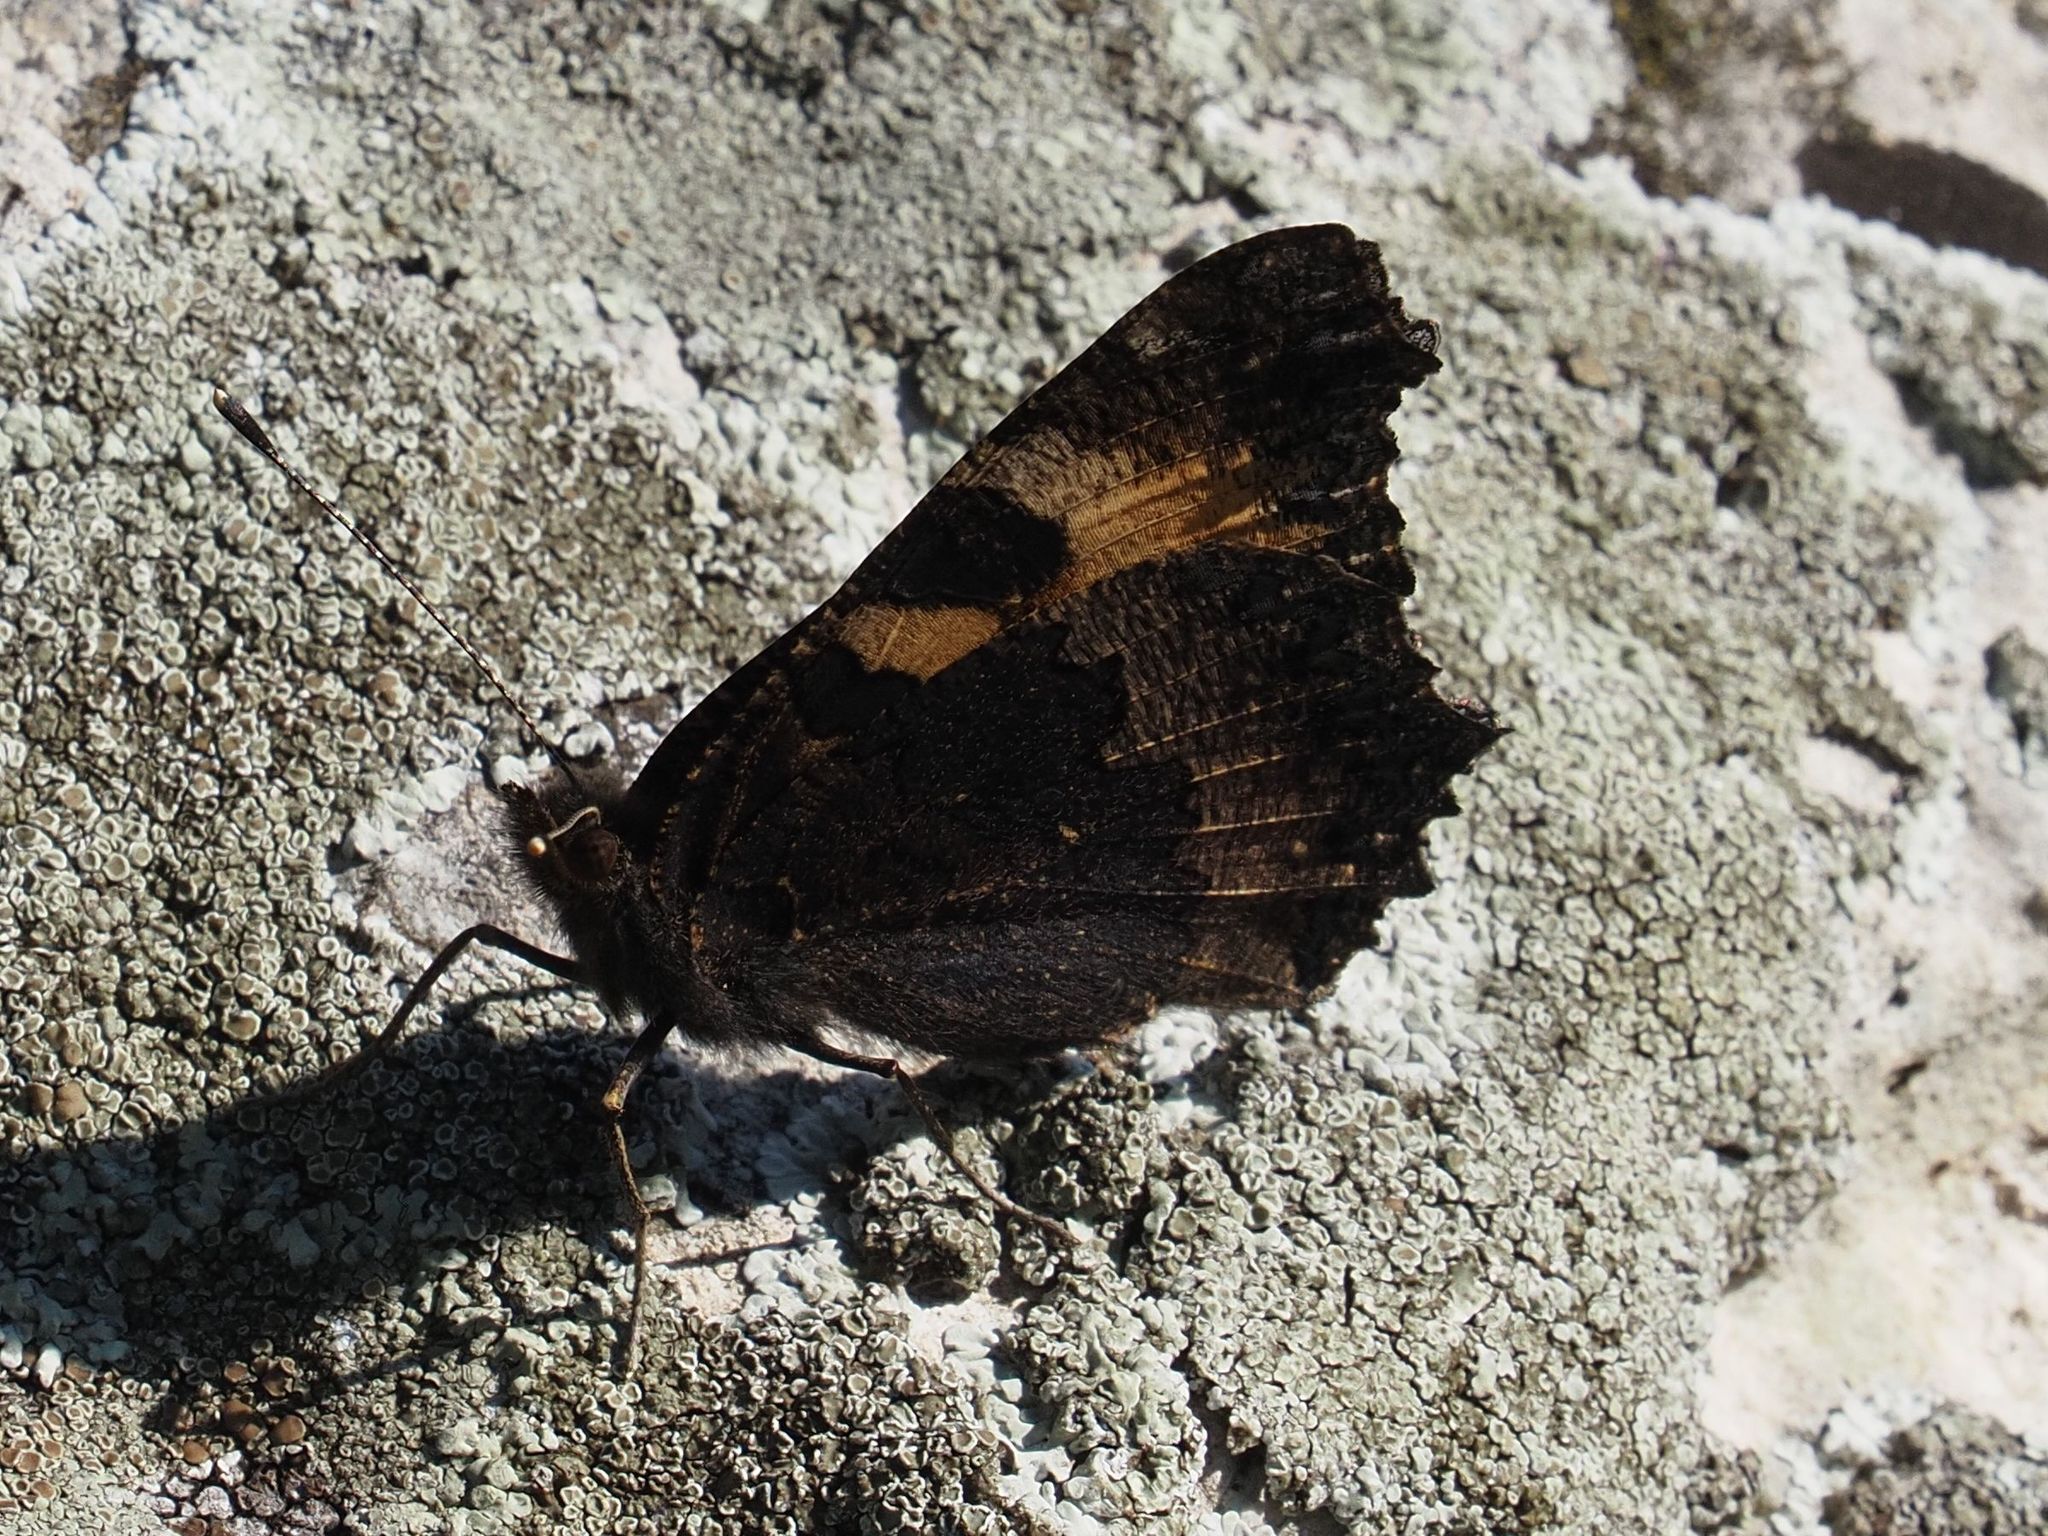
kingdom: Animalia
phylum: Arthropoda
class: Insecta
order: Lepidoptera
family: Nymphalidae
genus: Aglais
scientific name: Aglais urticae
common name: Small tortoiseshell
